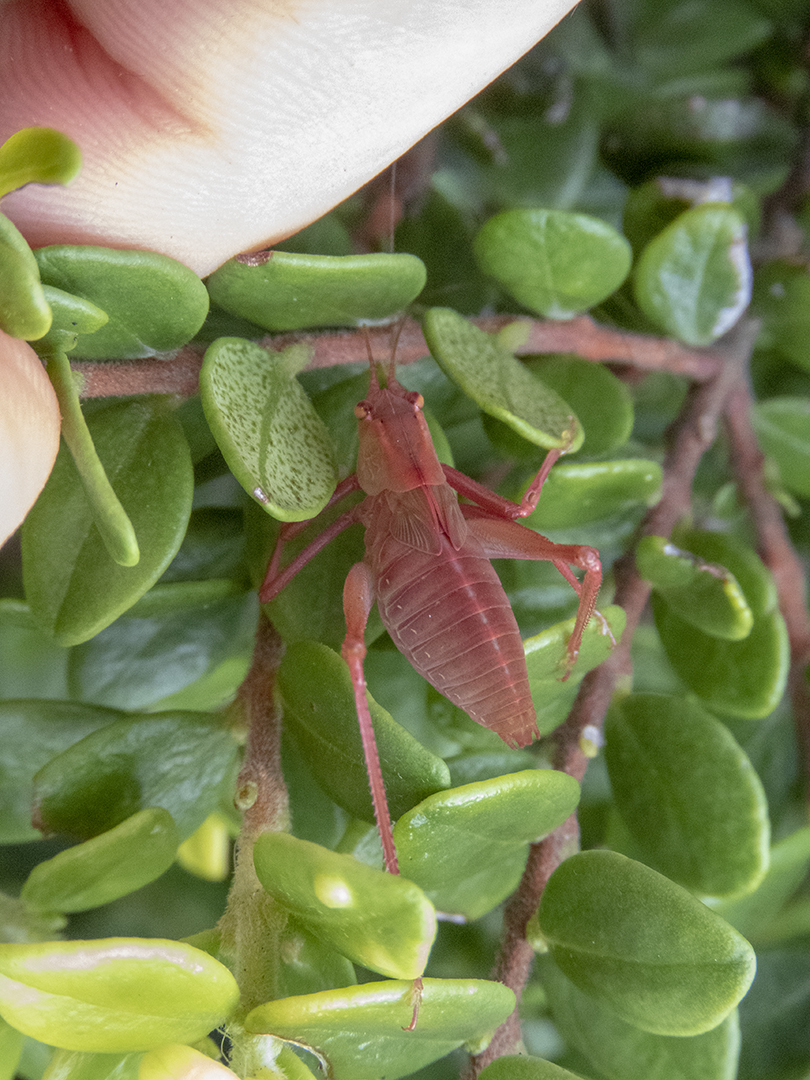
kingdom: Animalia
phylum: Arthropoda
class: Insecta
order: Orthoptera
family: Tettigoniidae
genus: Caedicia
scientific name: Caedicia simplex
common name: Common garden katydid
